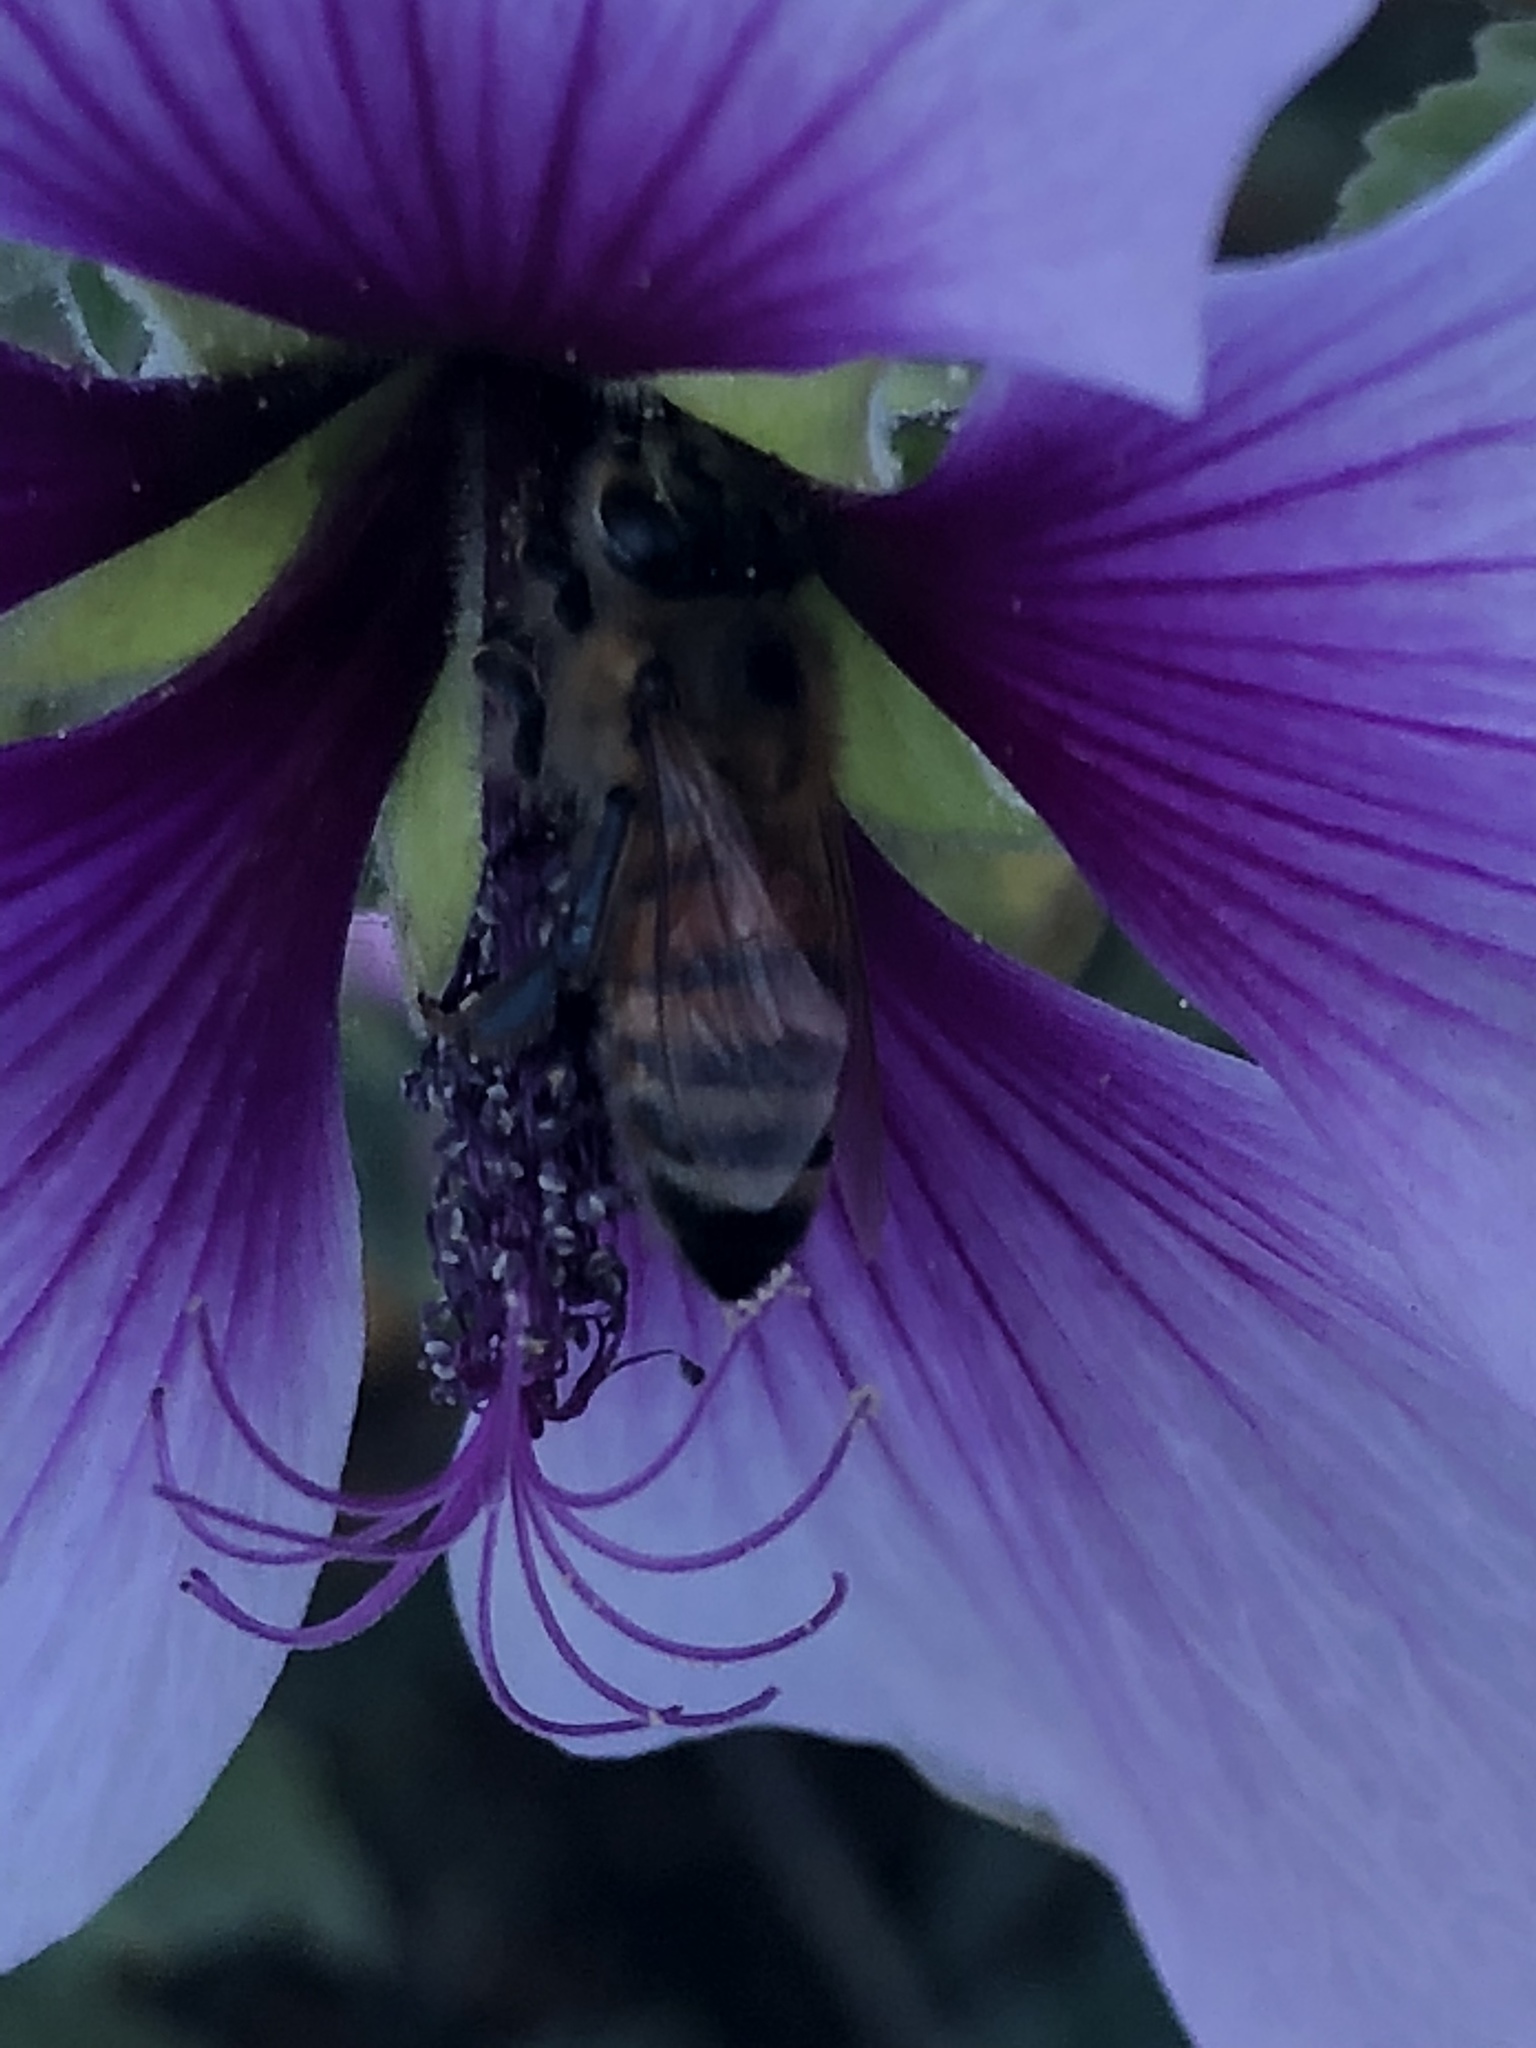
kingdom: Animalia
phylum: Arthropoda
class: Insecta
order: Hymenoptera
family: Apidae
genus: Apis
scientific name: Apis mellifera
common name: Honey bee
